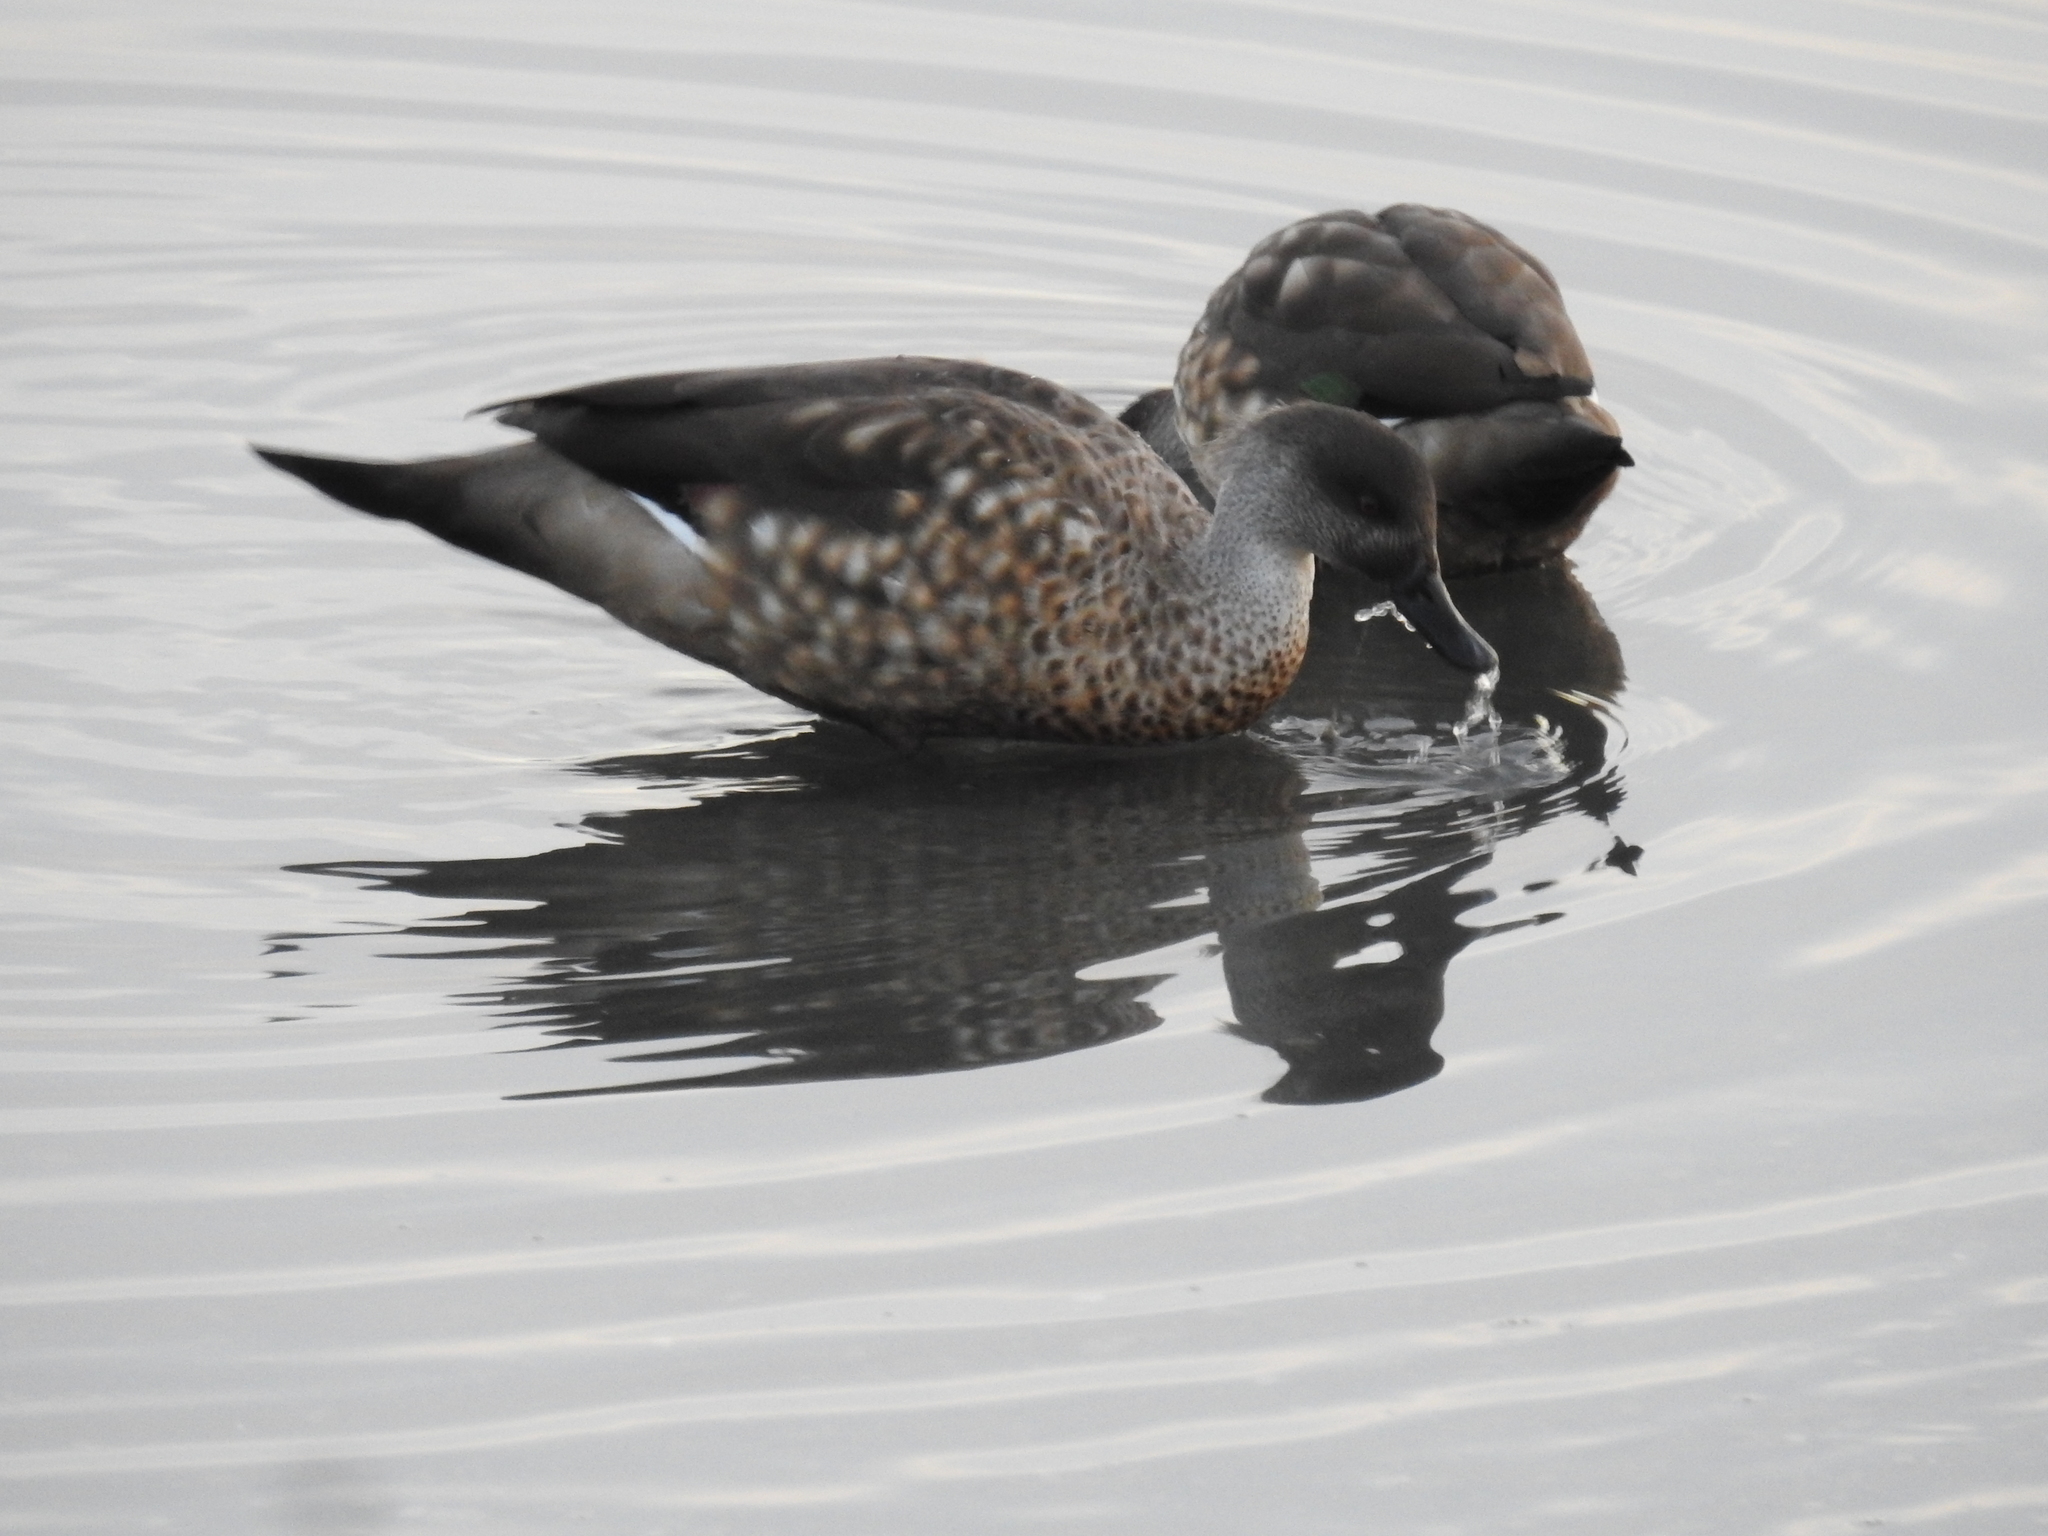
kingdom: Animalia
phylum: Chordata
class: Aves
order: Anseriformes
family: Anatidae
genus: Lophonetta
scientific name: Lophonetta specularioides
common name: Crested duck
